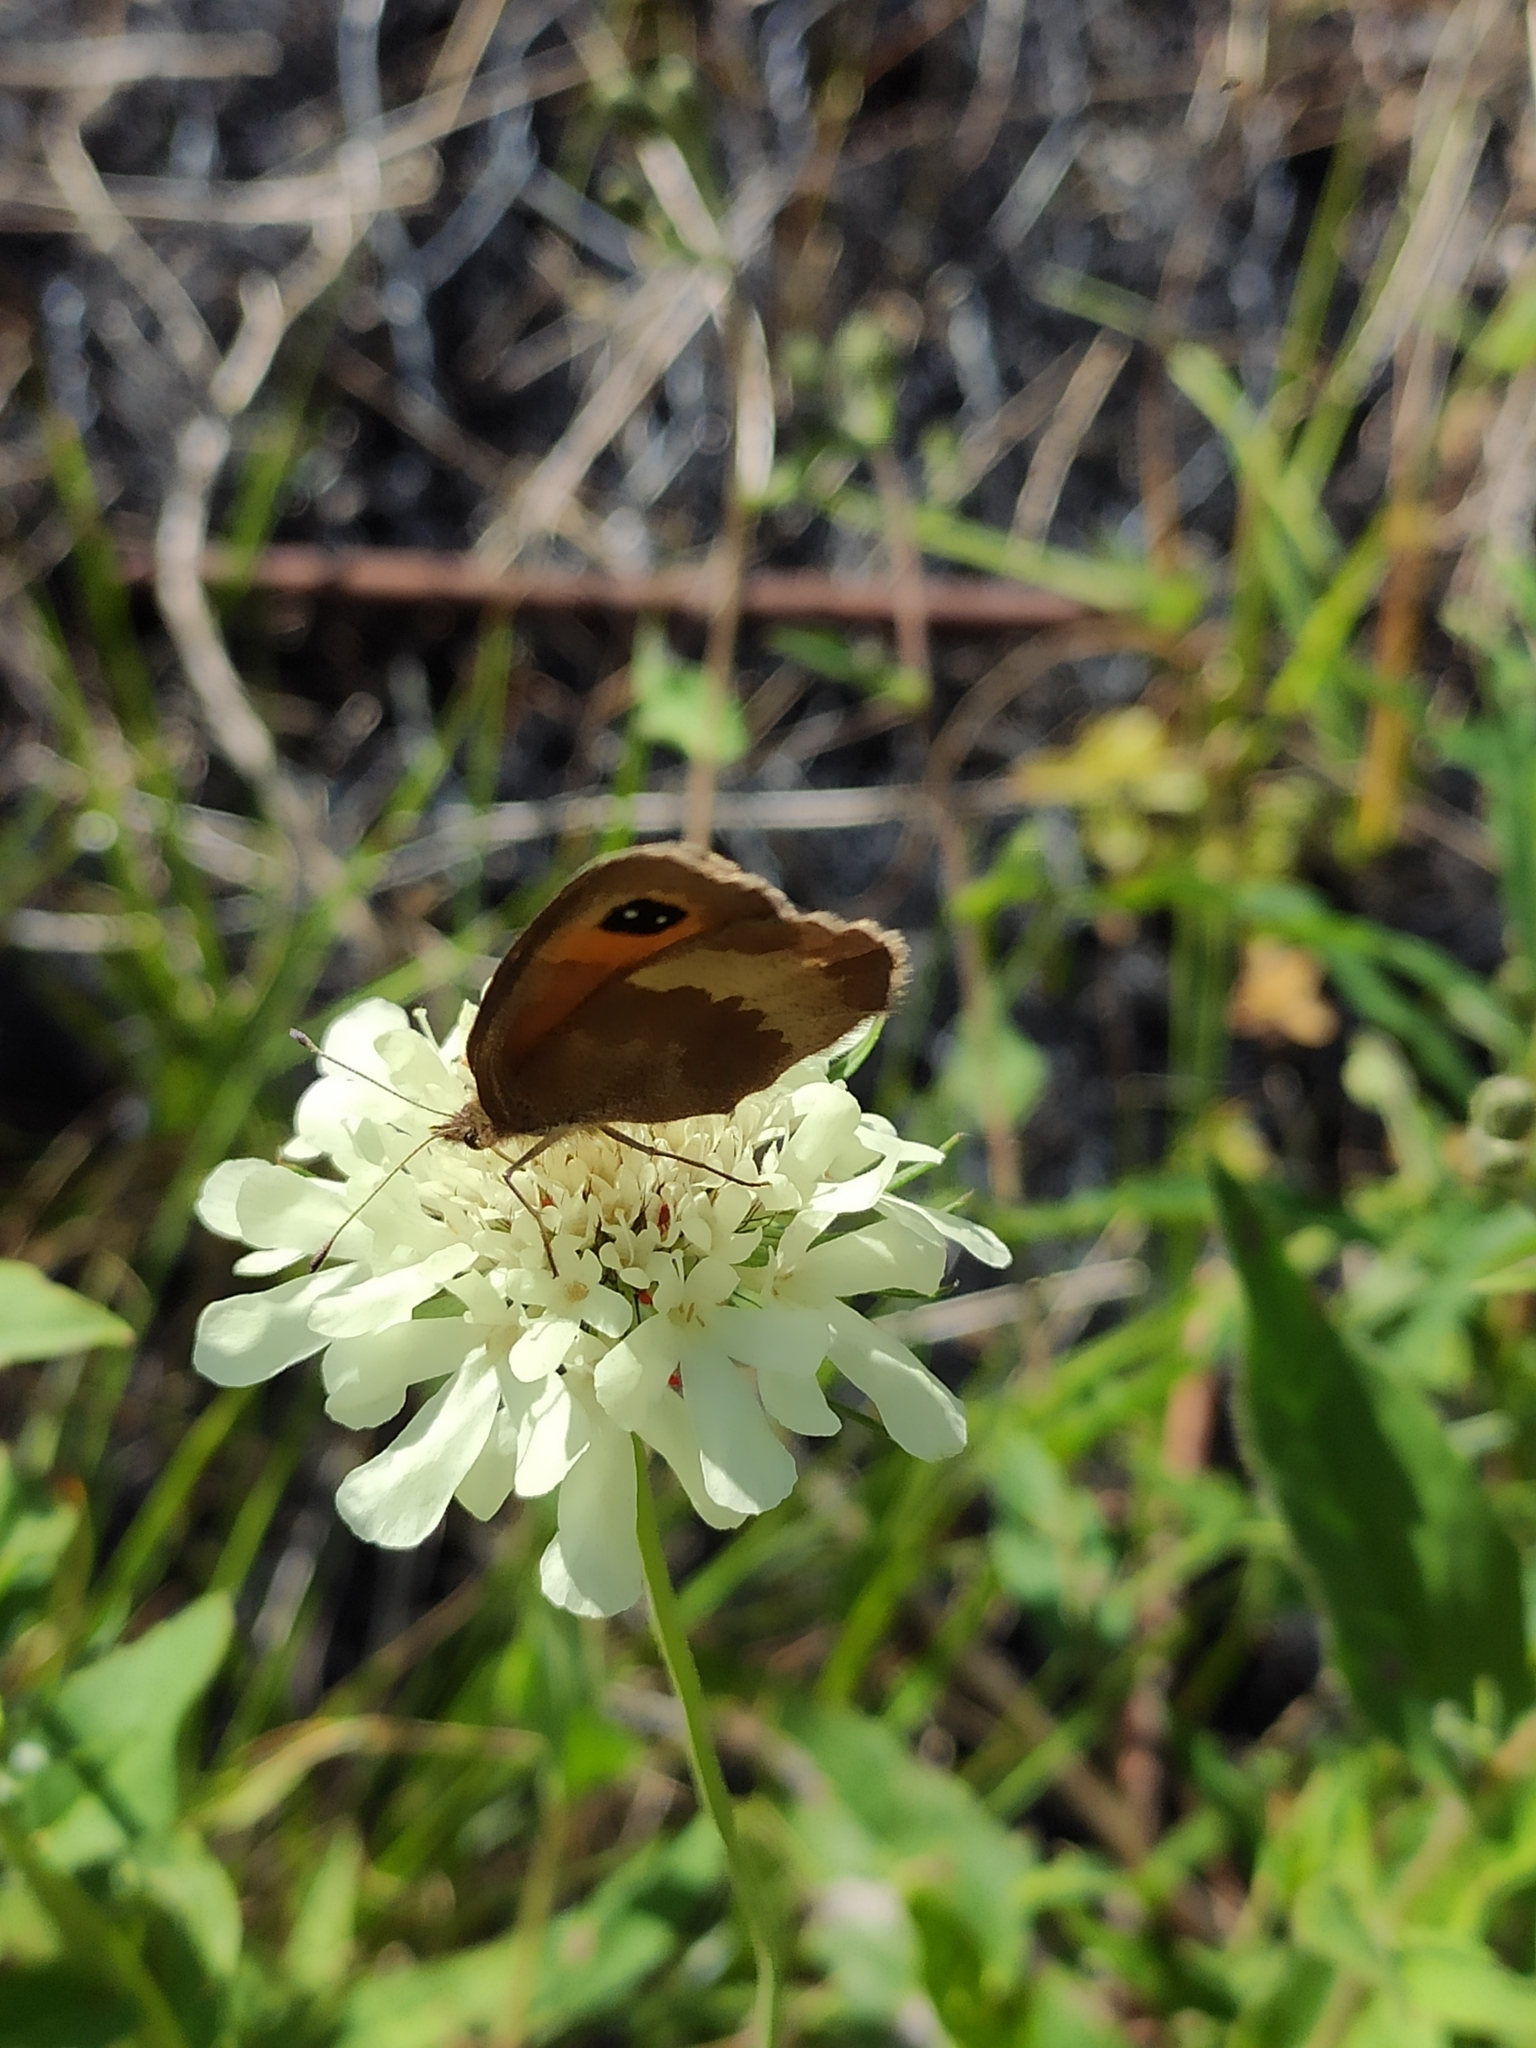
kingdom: Animalia
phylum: Arthropoda
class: Insecta
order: Lepidoptera
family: Nymphalidae
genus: Erebia
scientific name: Erebia aethiops
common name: Scotch argus
